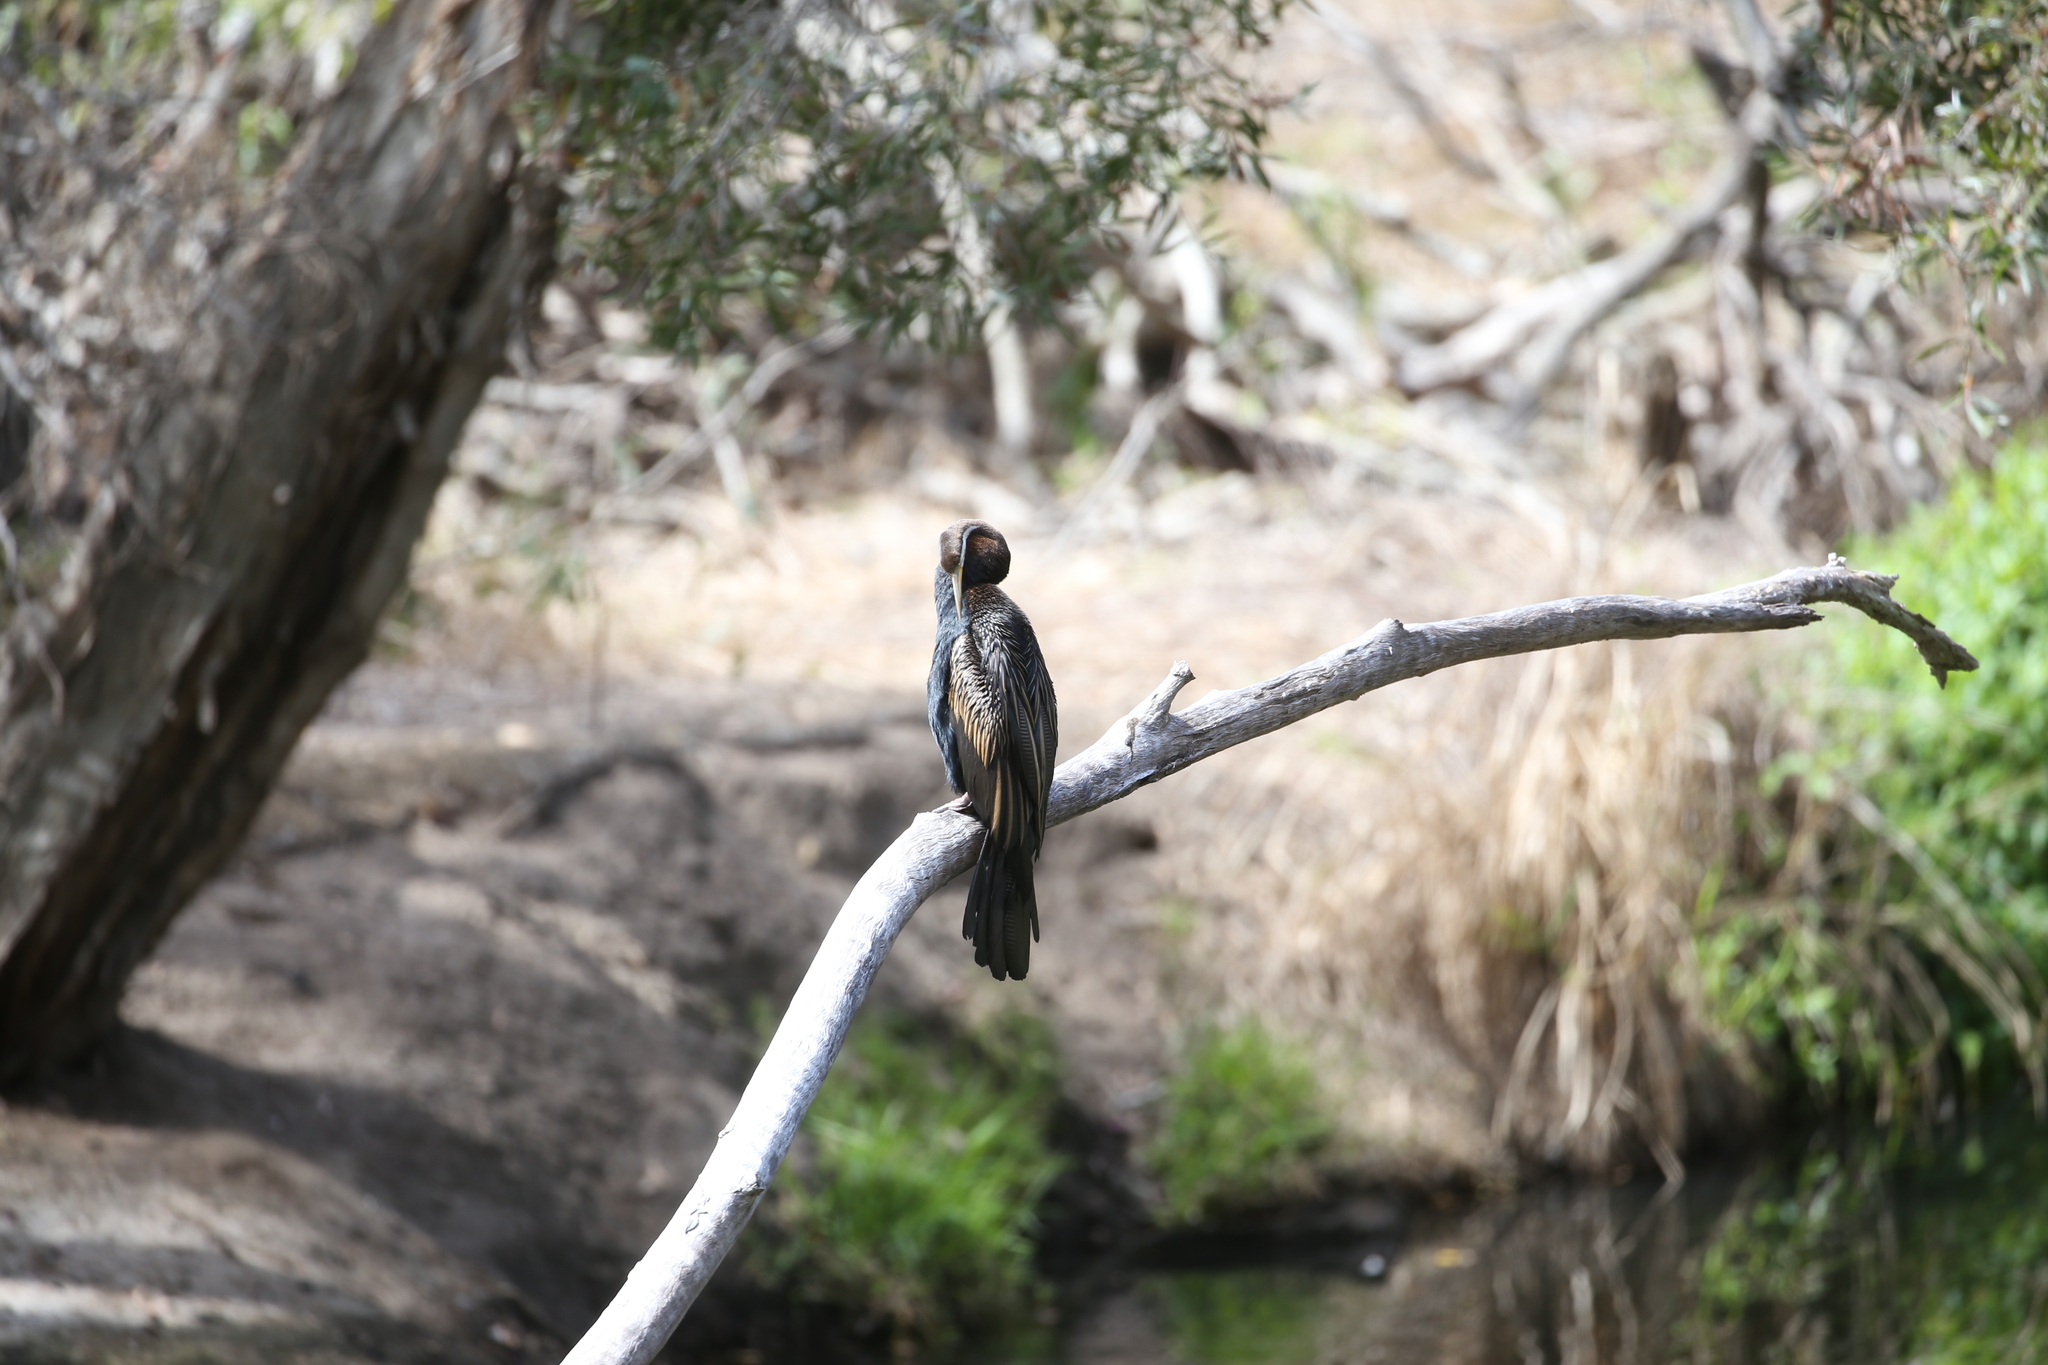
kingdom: Animalia
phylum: Chordata
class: Aves
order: Suliformes
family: Anhingidae
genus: Anhinga
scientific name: Anhinga novaehollandiae
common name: Australasian darter
